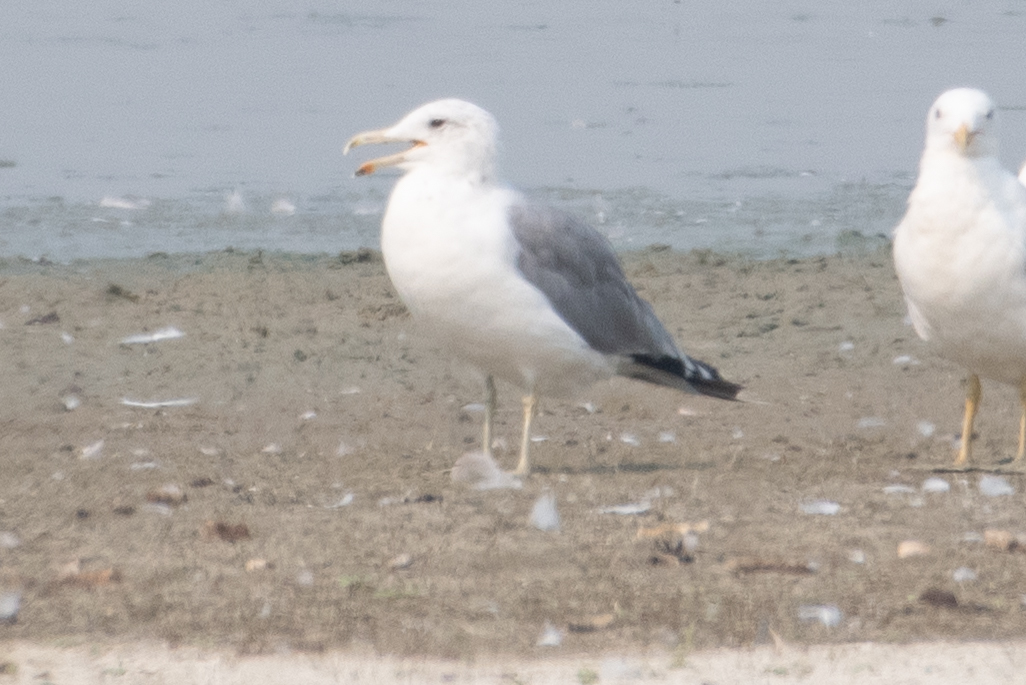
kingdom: Animalia
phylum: Chordata
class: Aves
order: Charadriiformes
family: Laridae
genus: Larus
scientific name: Larus californicus
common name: California gull
